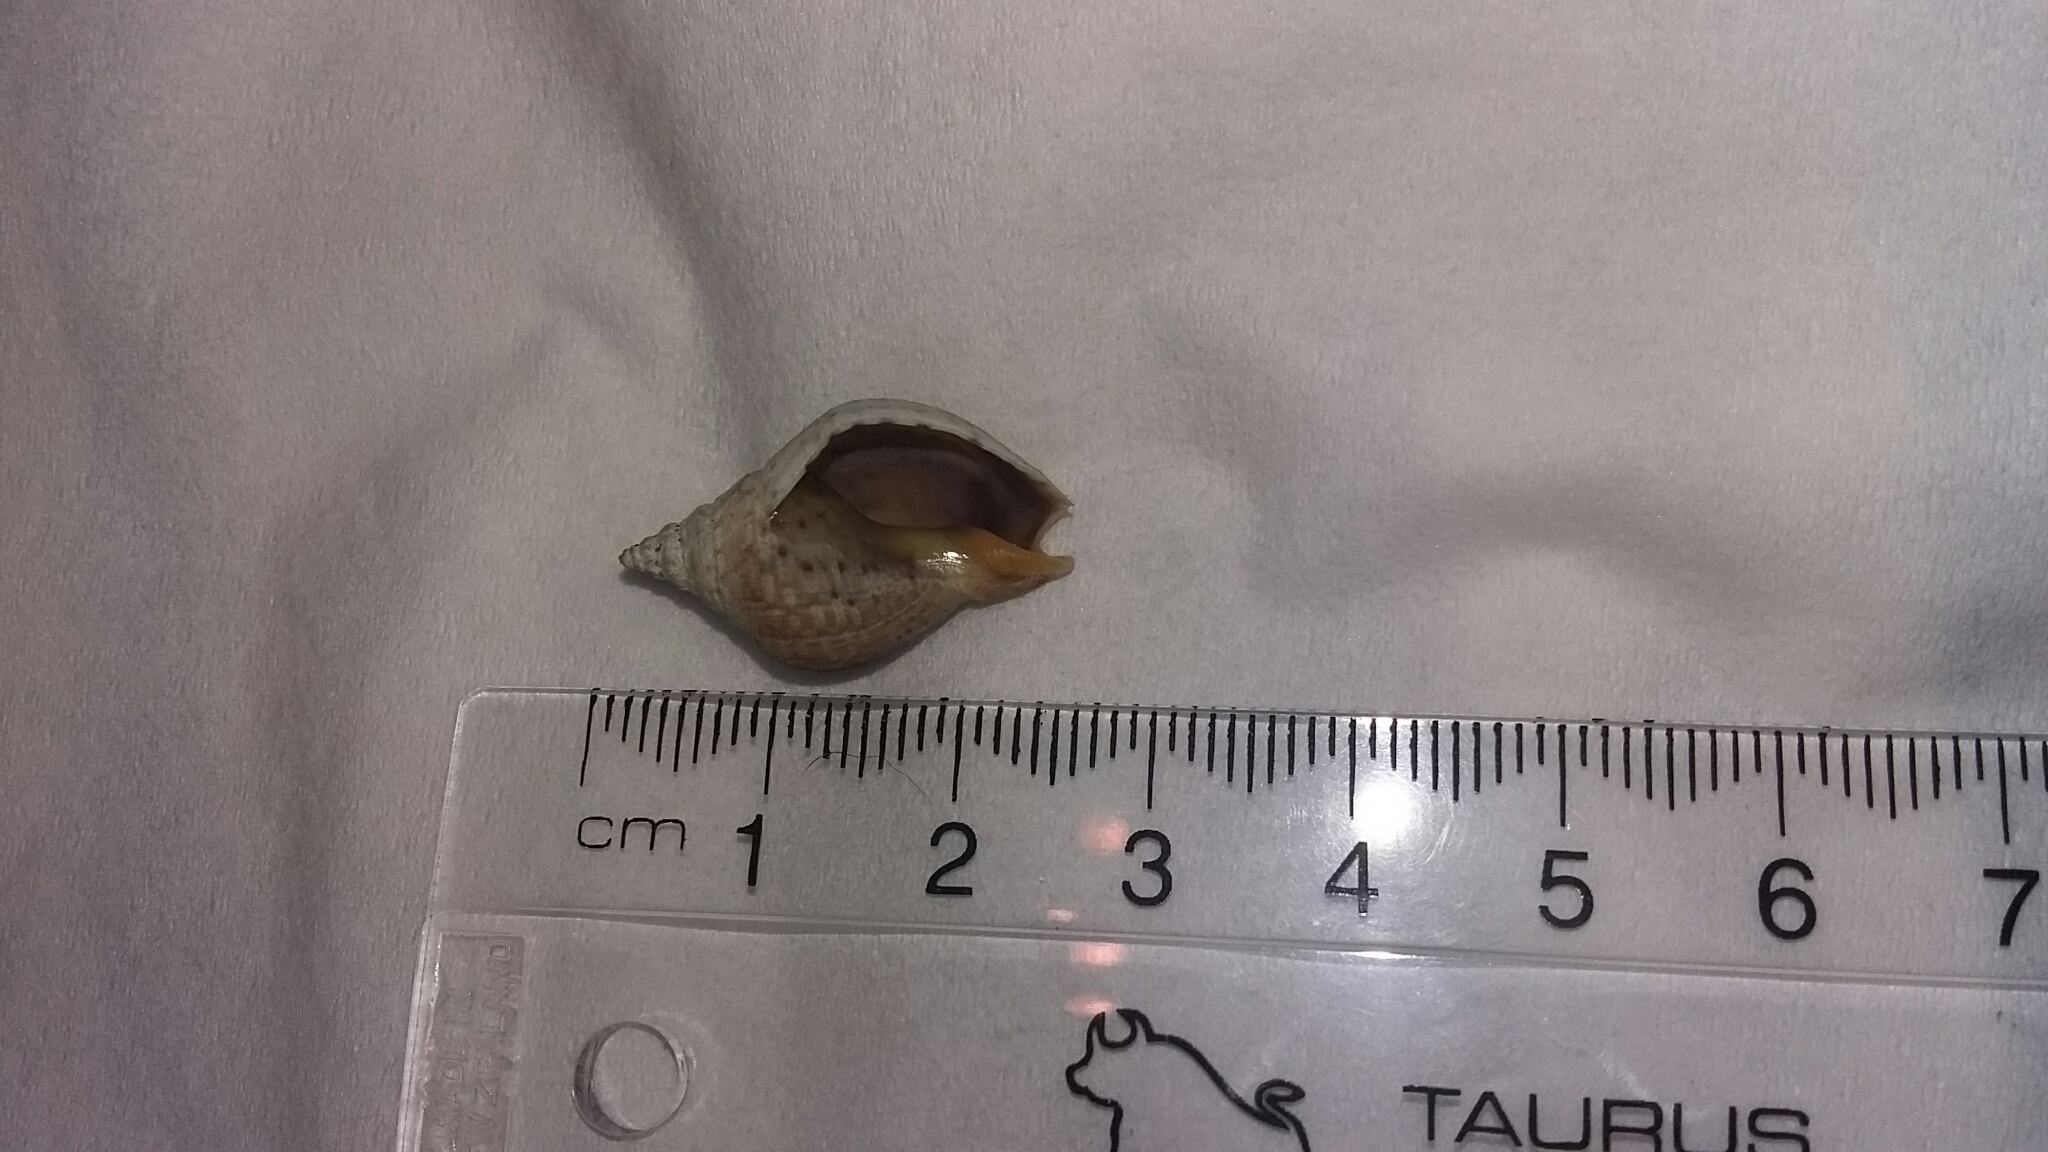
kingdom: Animalia
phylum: Mollusca
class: Gastropoda
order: Neogastropoda
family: Cominellidae
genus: Cominella
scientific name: Cominella adspersa
